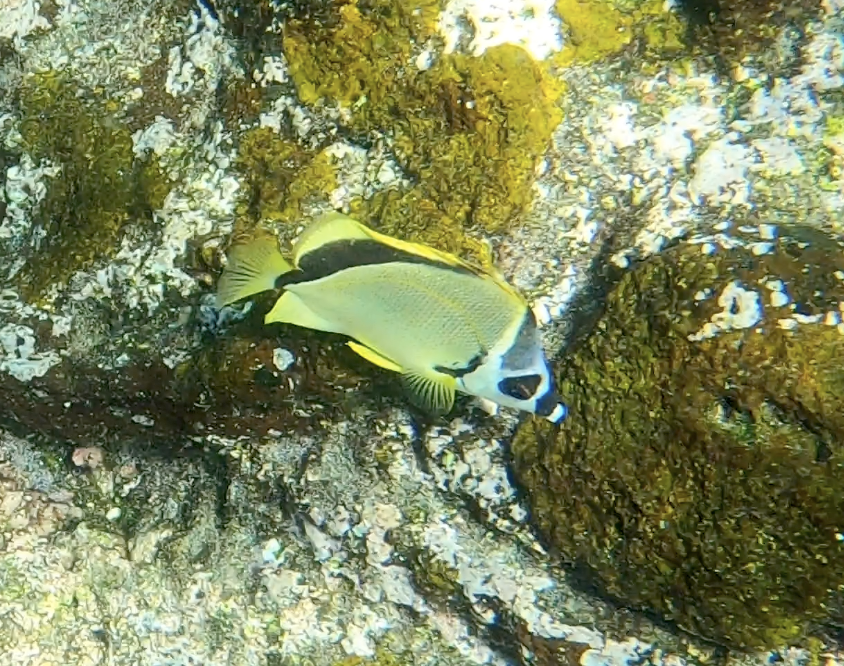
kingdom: Animalia
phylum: Chordata
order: Perciformes
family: Chaetodontidae
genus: Johnrandallia
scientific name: Johnrandallia nigrirostris
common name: Barberfish
